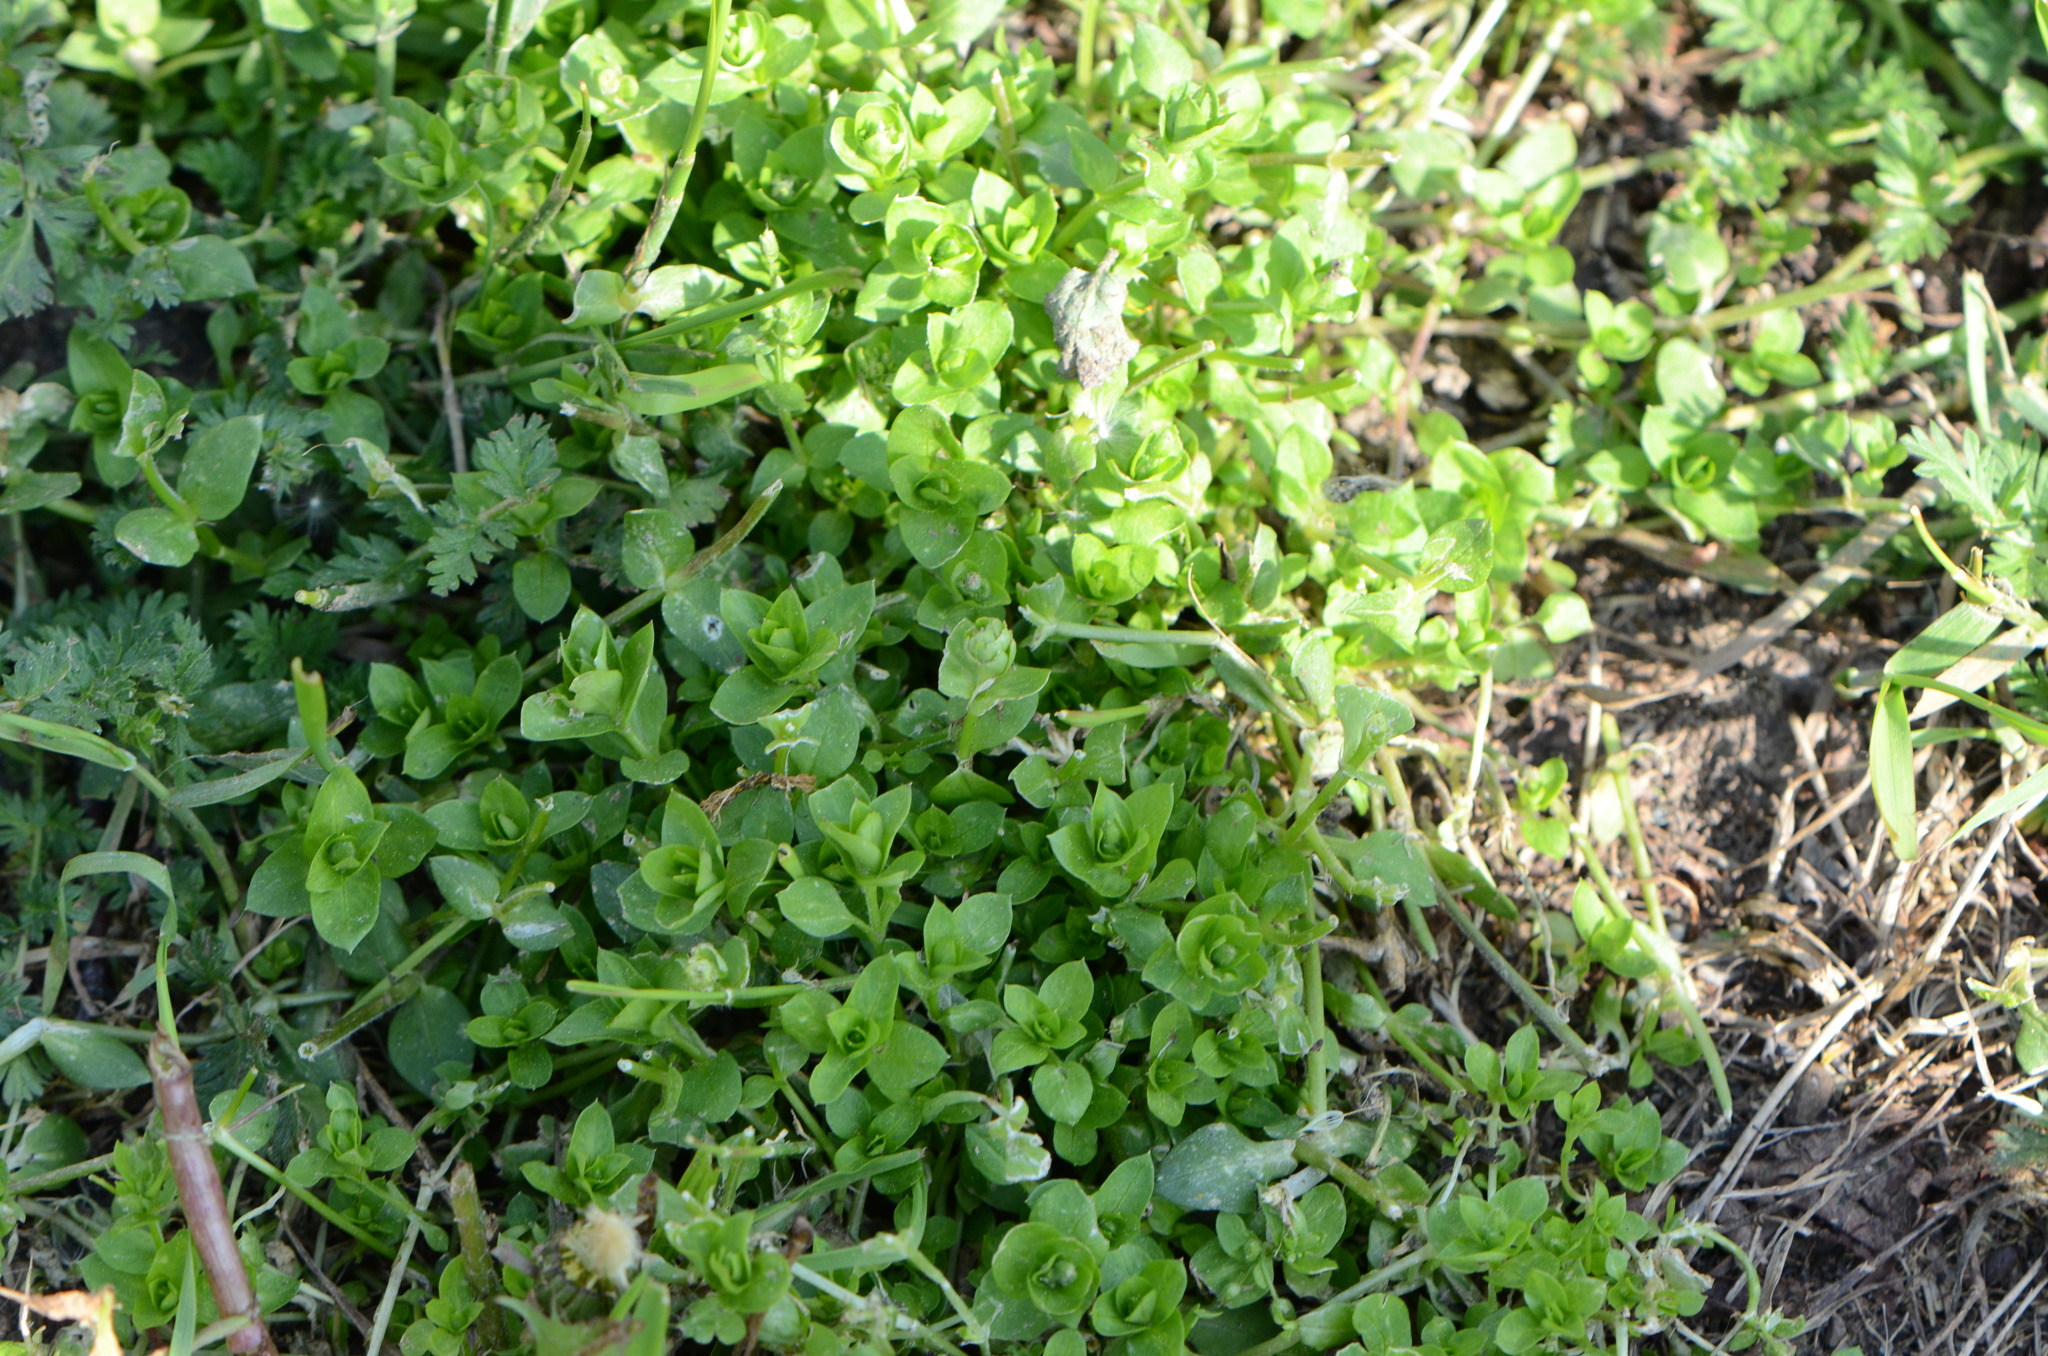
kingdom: Plantae
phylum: Tracheophyta
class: Magnoliopsida
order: Caryophyllales
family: Caryophyllaceae
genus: Stellaria
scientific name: Stellaria media
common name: Common chickweed
